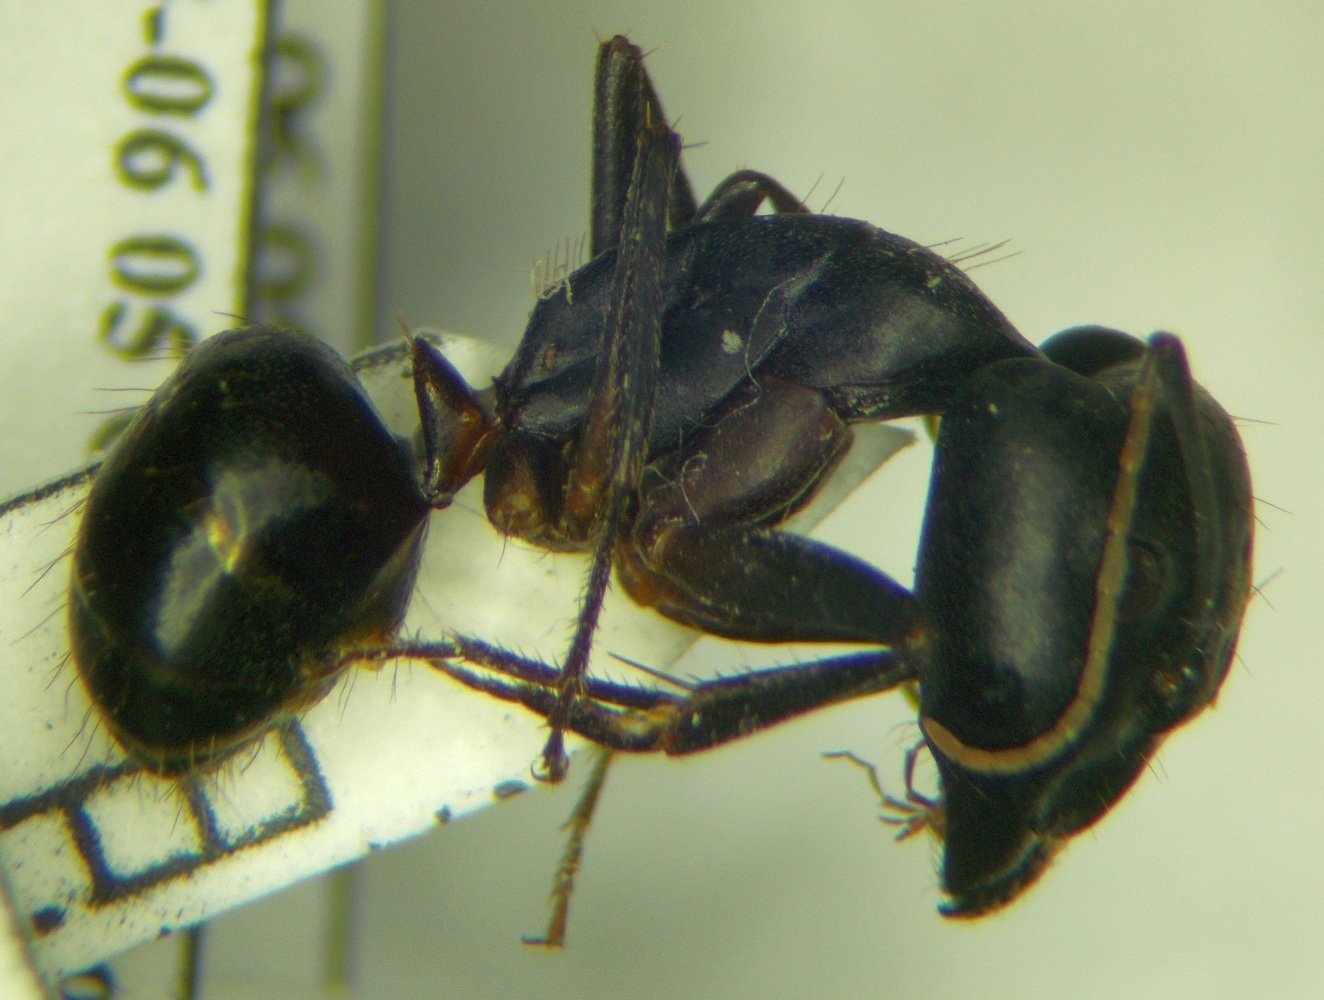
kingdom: Animalia
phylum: Arthropoda
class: Insecta
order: Hymenoptera
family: Formicidae
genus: Camponotus
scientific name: Camponotus sanctus
